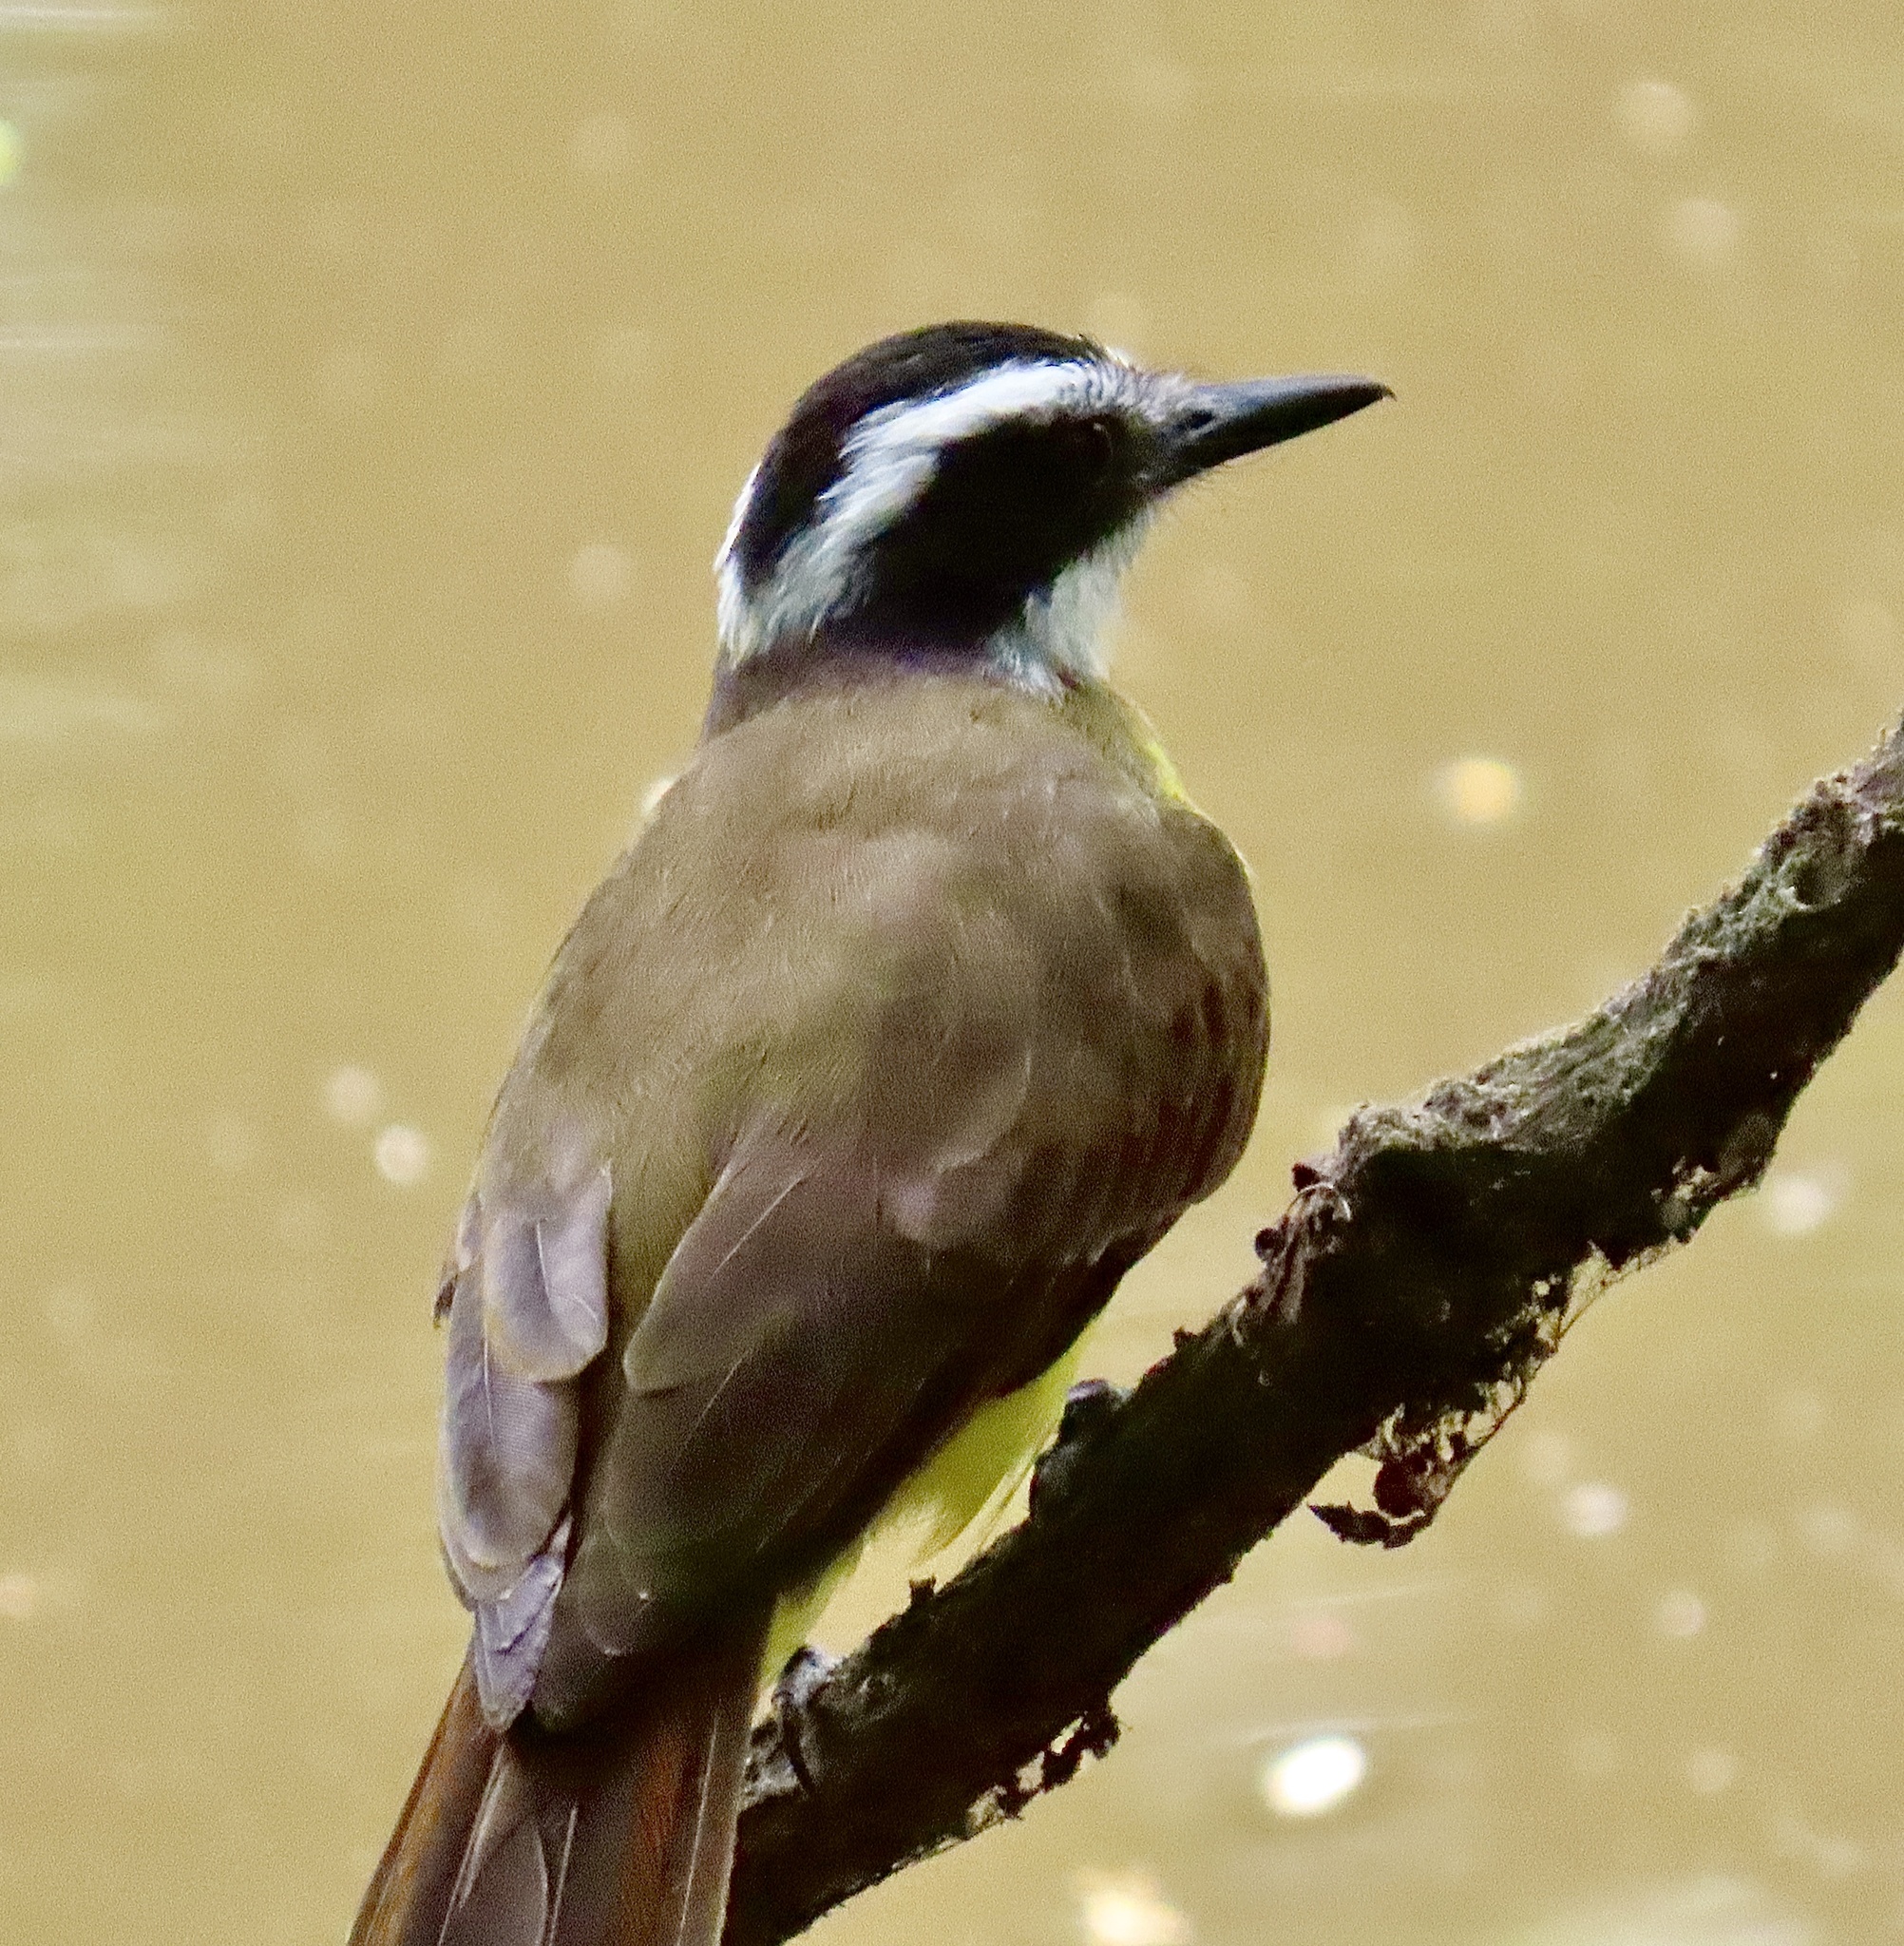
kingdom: Animalia
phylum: Chordata
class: Aves
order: Passeriformes
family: Tyrannidae
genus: Pitangus
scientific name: Pitangus lictor
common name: Lesser kiskadee
